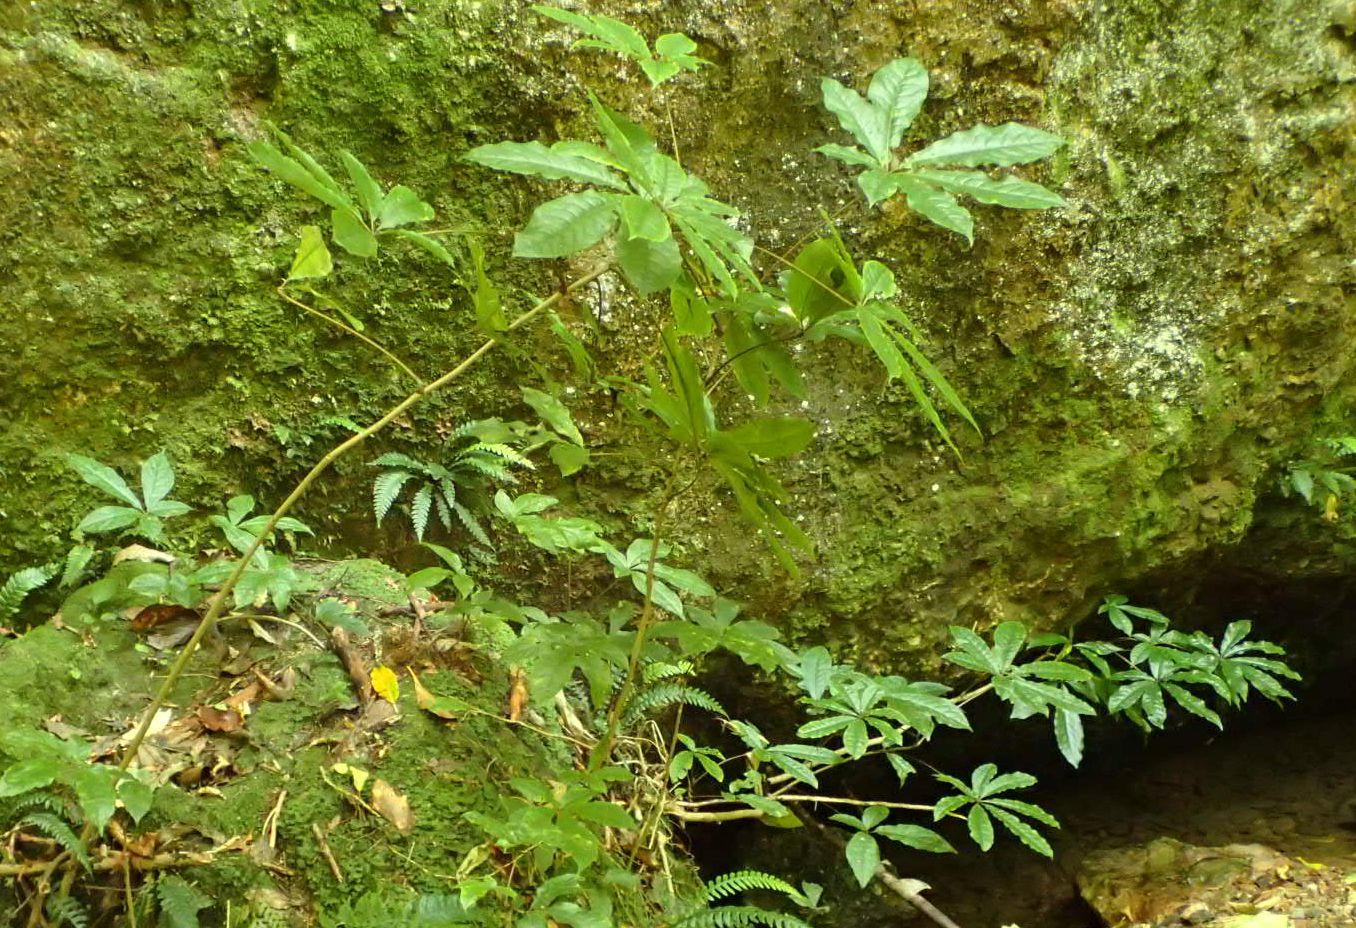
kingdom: Plantae
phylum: Tracheophyta
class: Magnoliopsida
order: Apiales
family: Araliaceae
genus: Schefflera
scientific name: Schefflera digitata
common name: Pate
